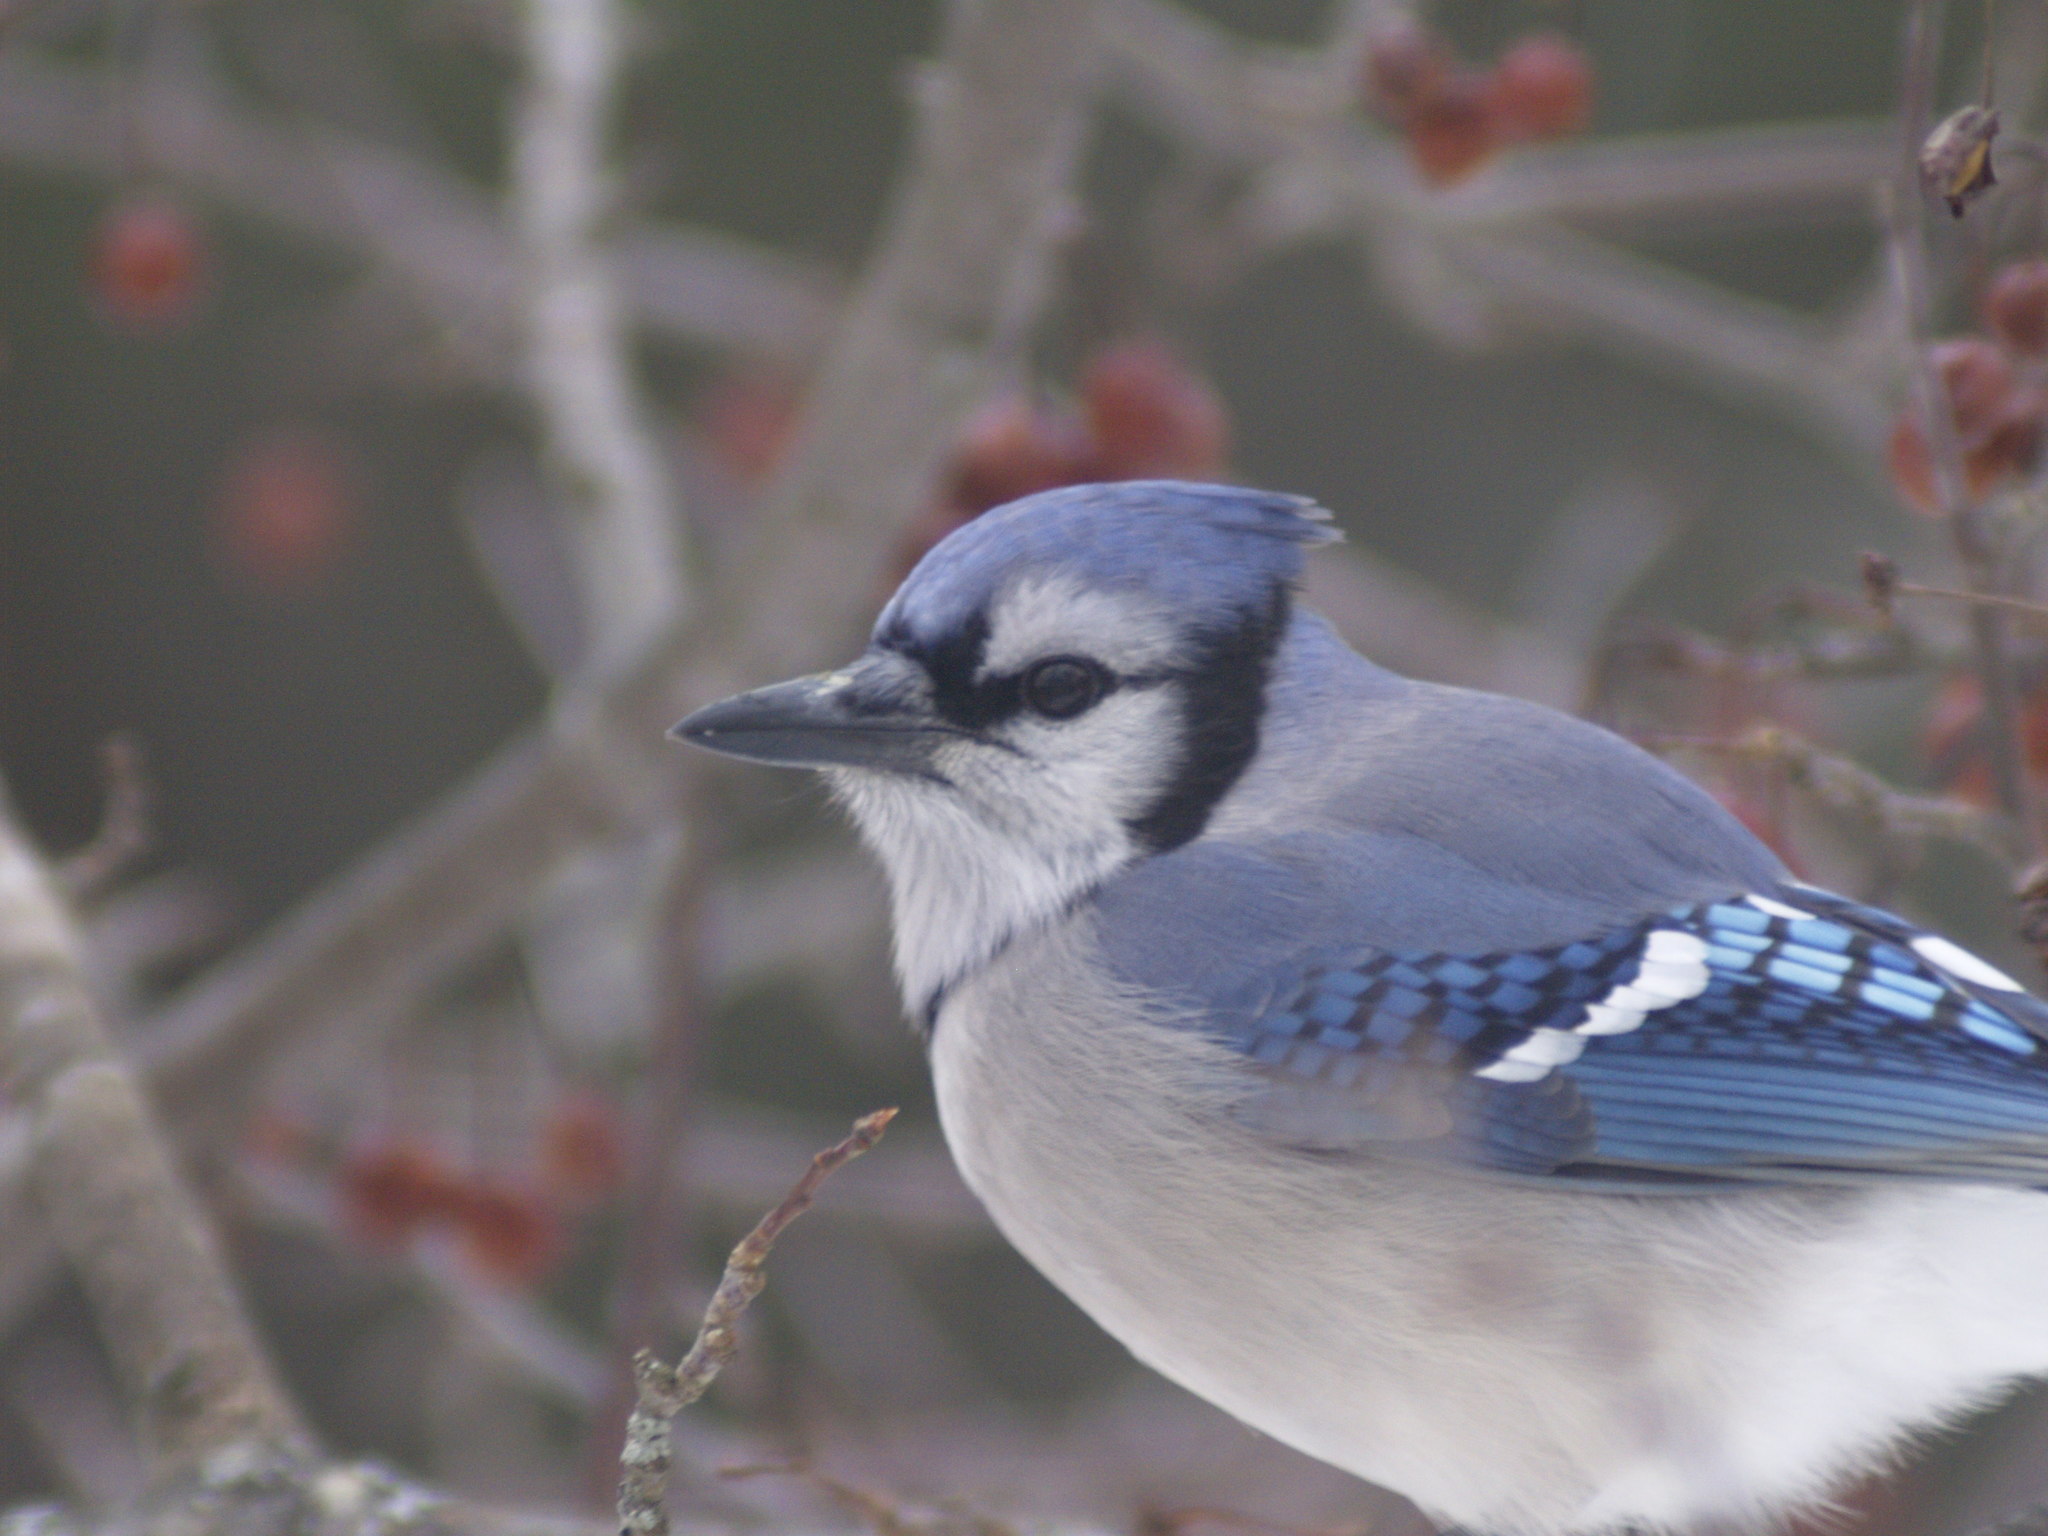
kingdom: Animalia
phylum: Chordata
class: Aves
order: Passeriformes
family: Corvidae
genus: Cyanocitta
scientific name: Cyanocitta cristata
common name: Blue jay
